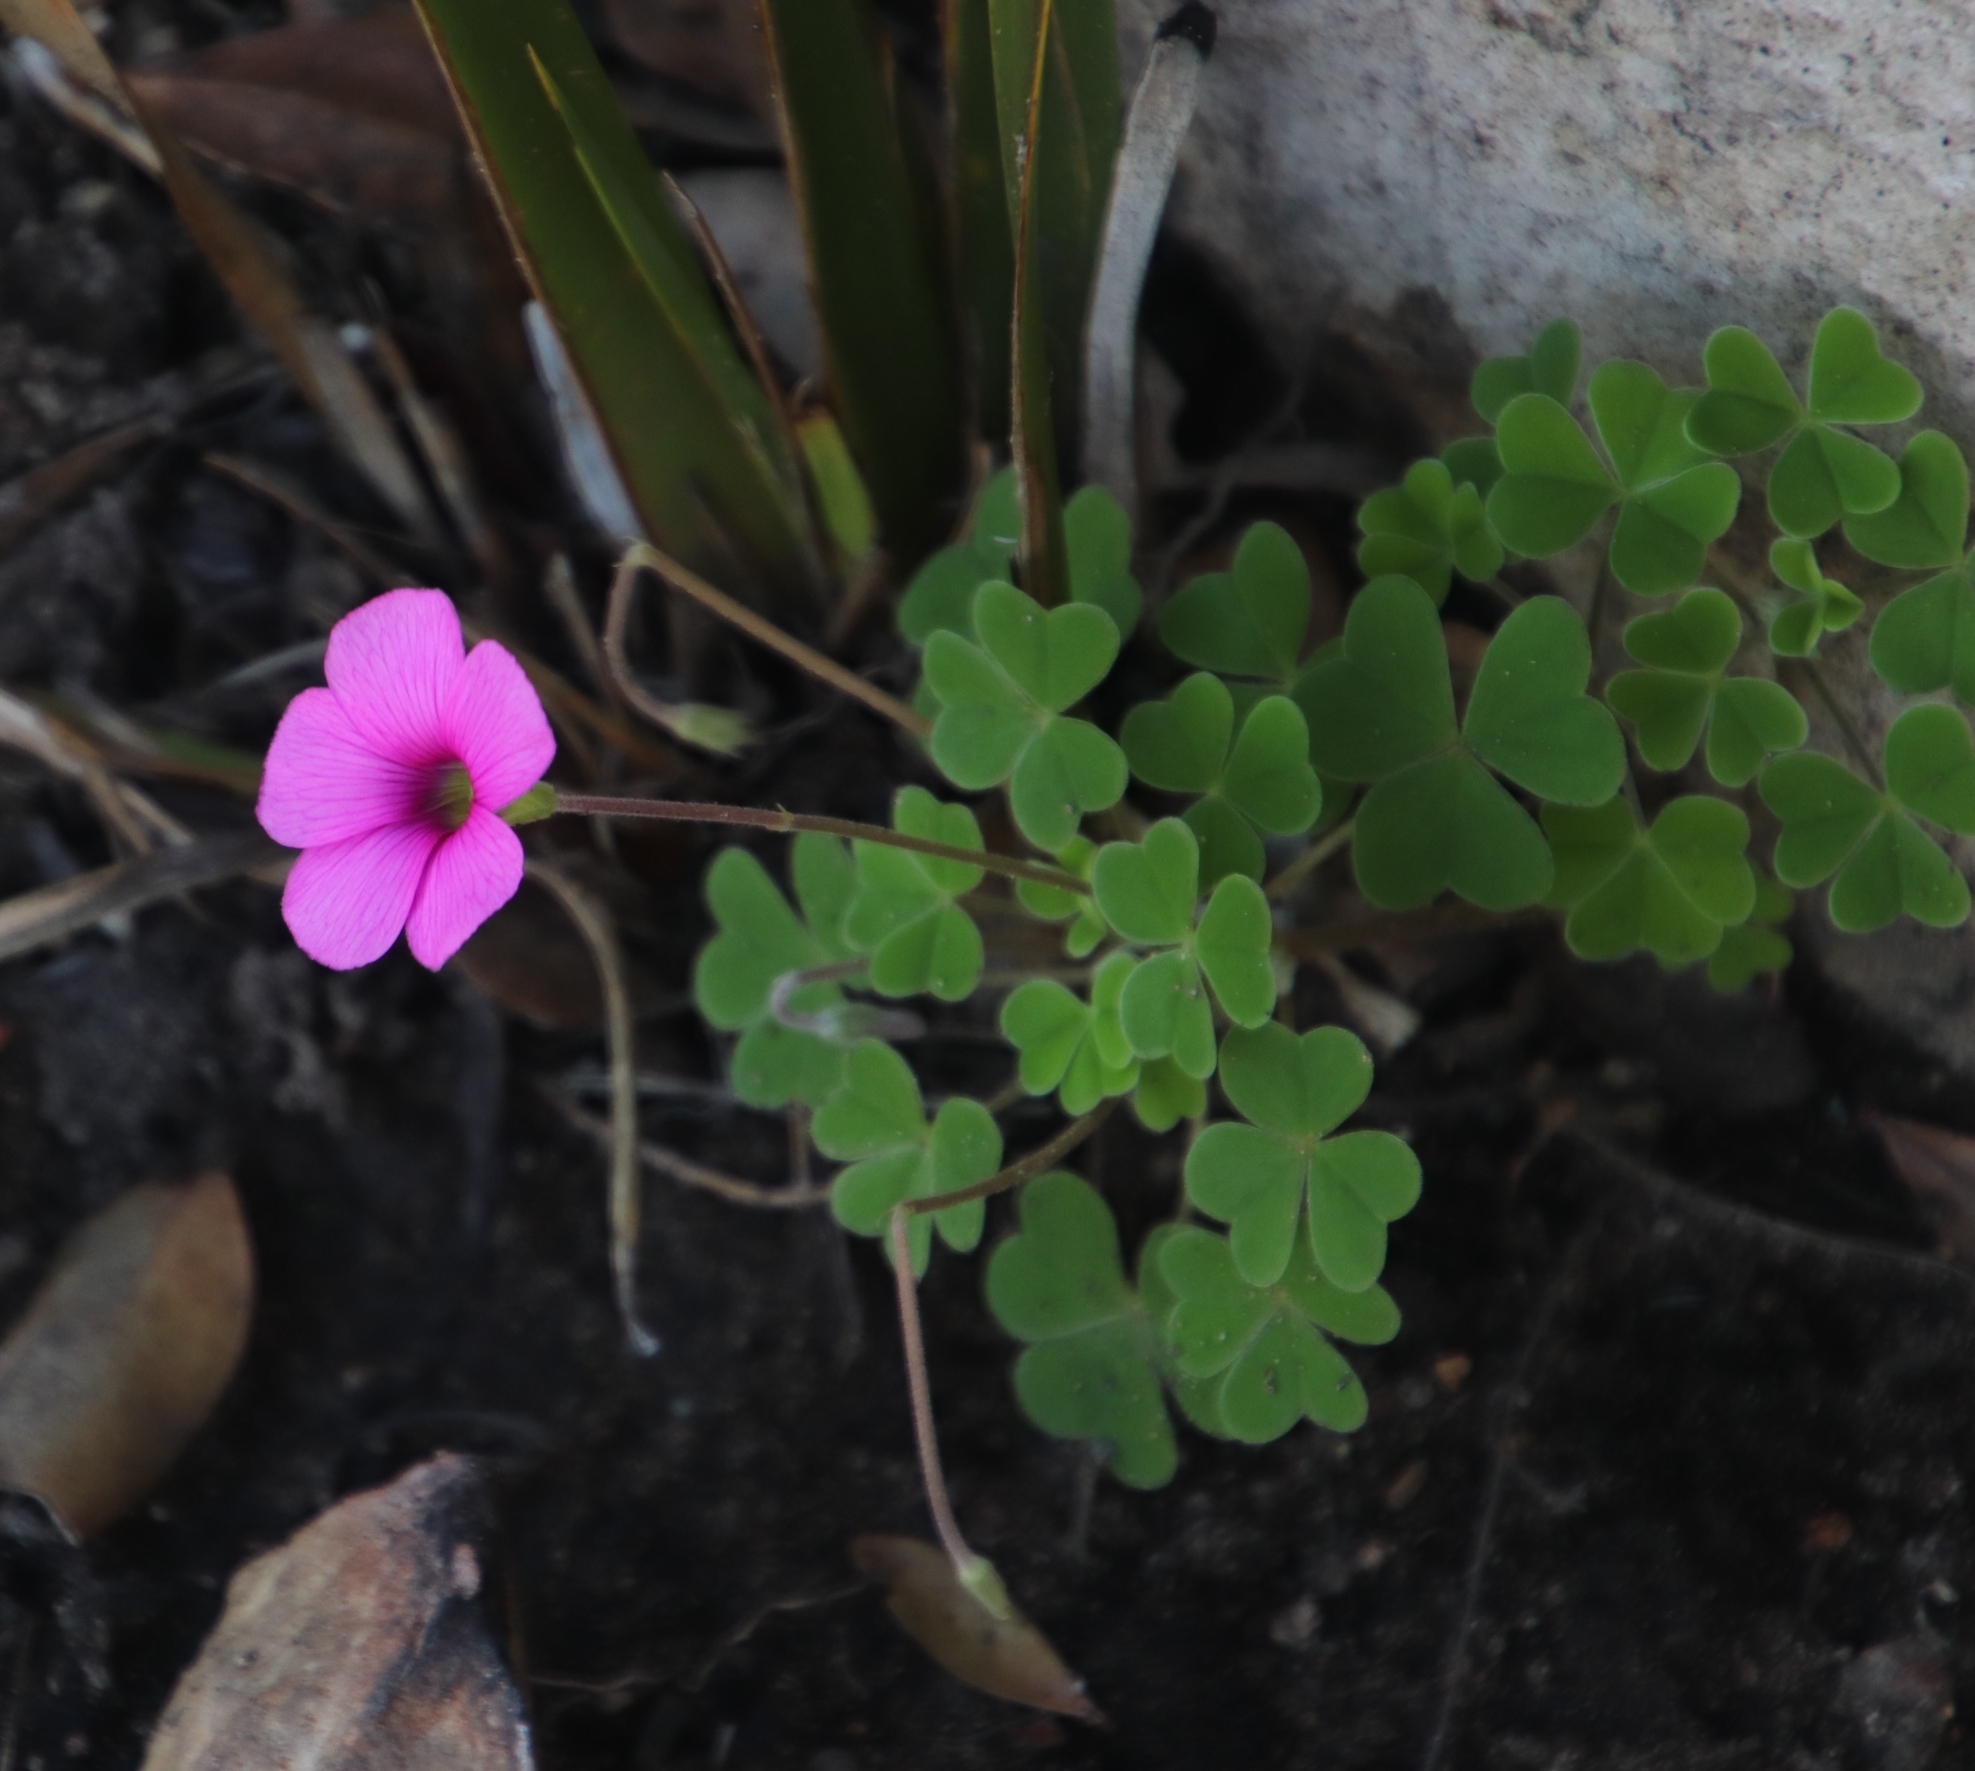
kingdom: Plantae
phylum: Tracheophyta
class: Magnoliopsida
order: Oxalidales
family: Oxalidaceae
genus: Oxalis
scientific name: Oxalis lanata
